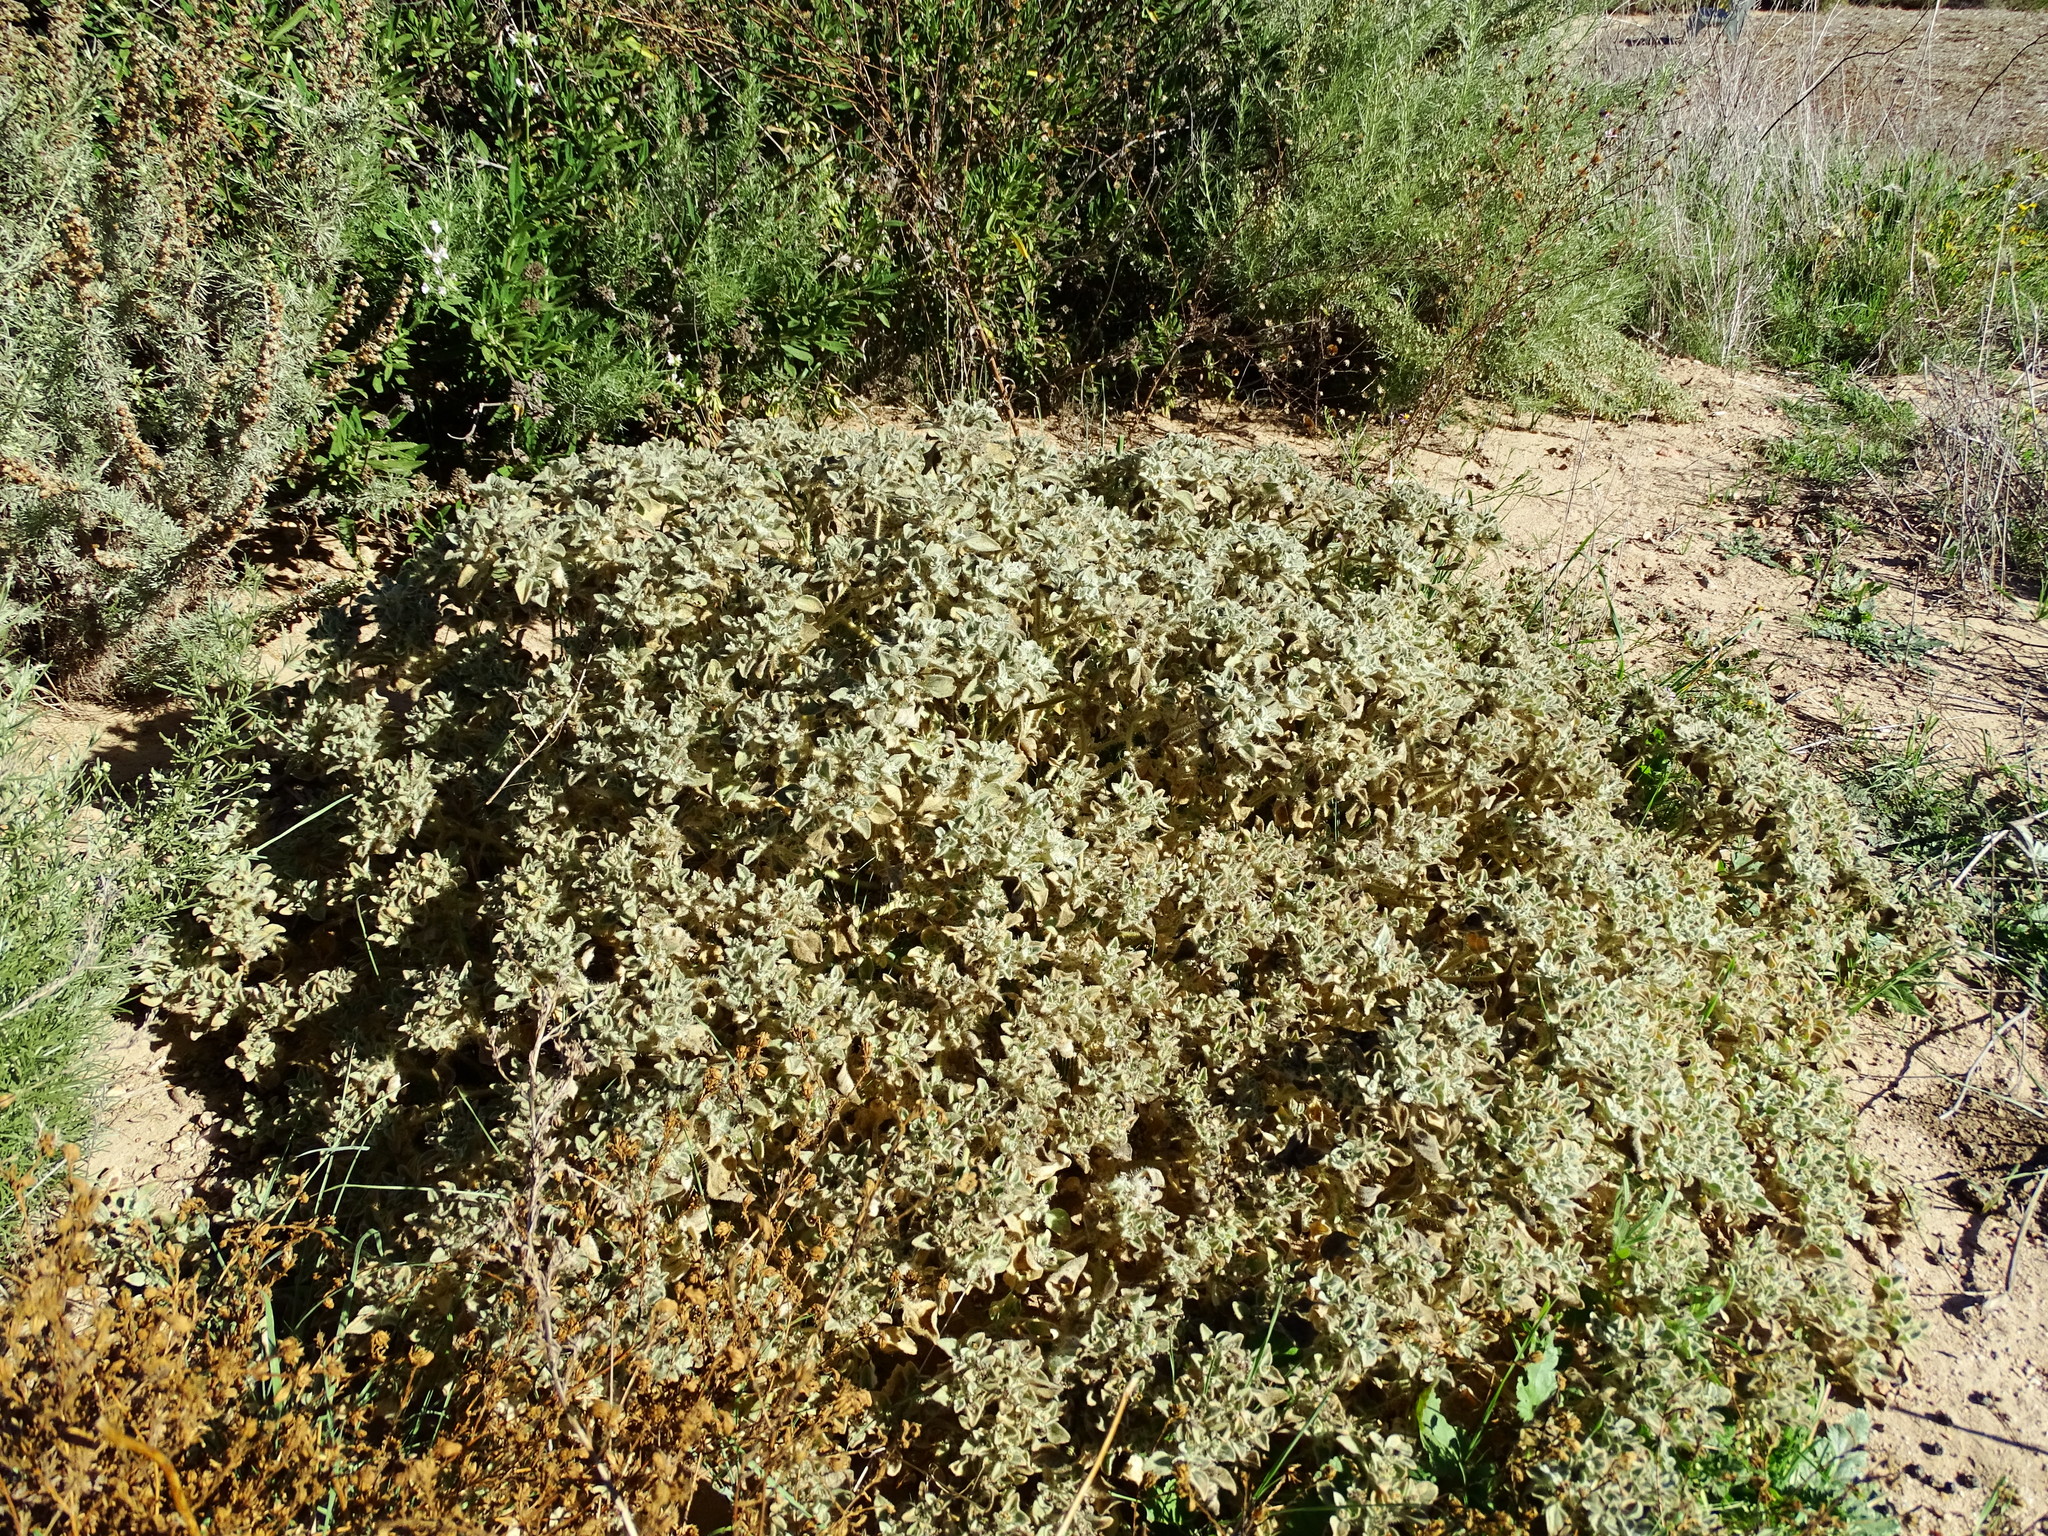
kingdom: Plantae
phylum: Tracheophyta
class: Magnoliopsida
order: Malpighiales
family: Euphorbiaceae
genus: Croton
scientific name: Croton setiger
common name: Dove weed
